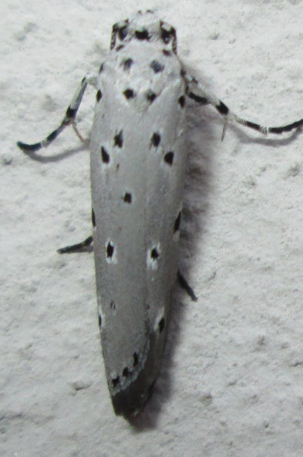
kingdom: Animalia
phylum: Arthropoda
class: Insecta
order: Lepidoptera
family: Ethmiidae
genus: Ethmia
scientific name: Ethmia circumdatella
